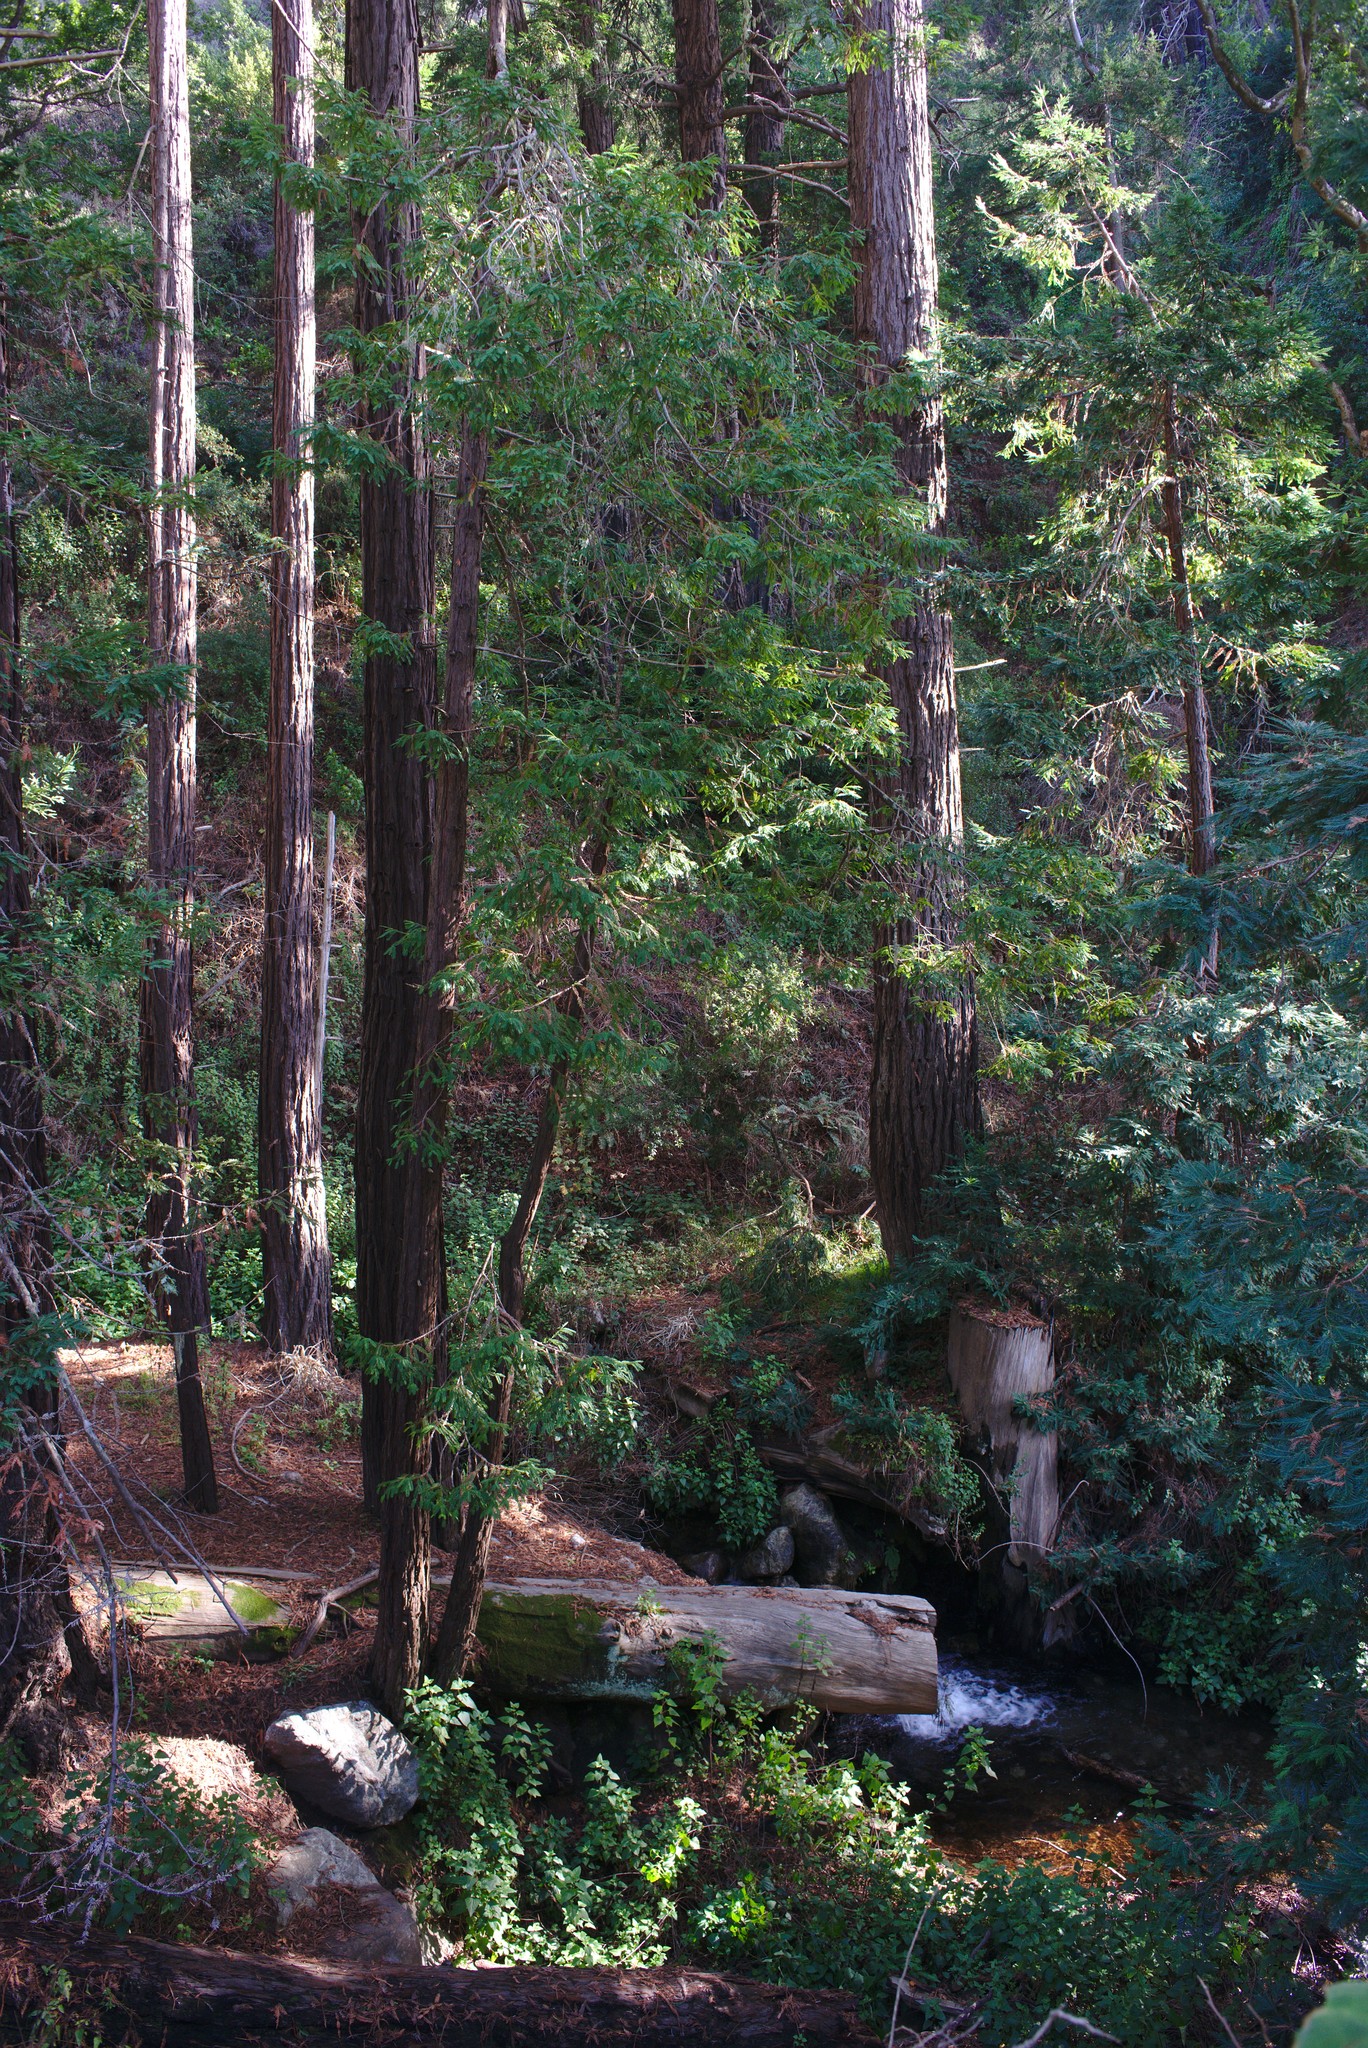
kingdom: Plantae
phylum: Tracheophyta
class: Pinopsida
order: Pinales
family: Cupressaceae
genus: Sequoia
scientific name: Sequoia sempervirens
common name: Coast redwood
